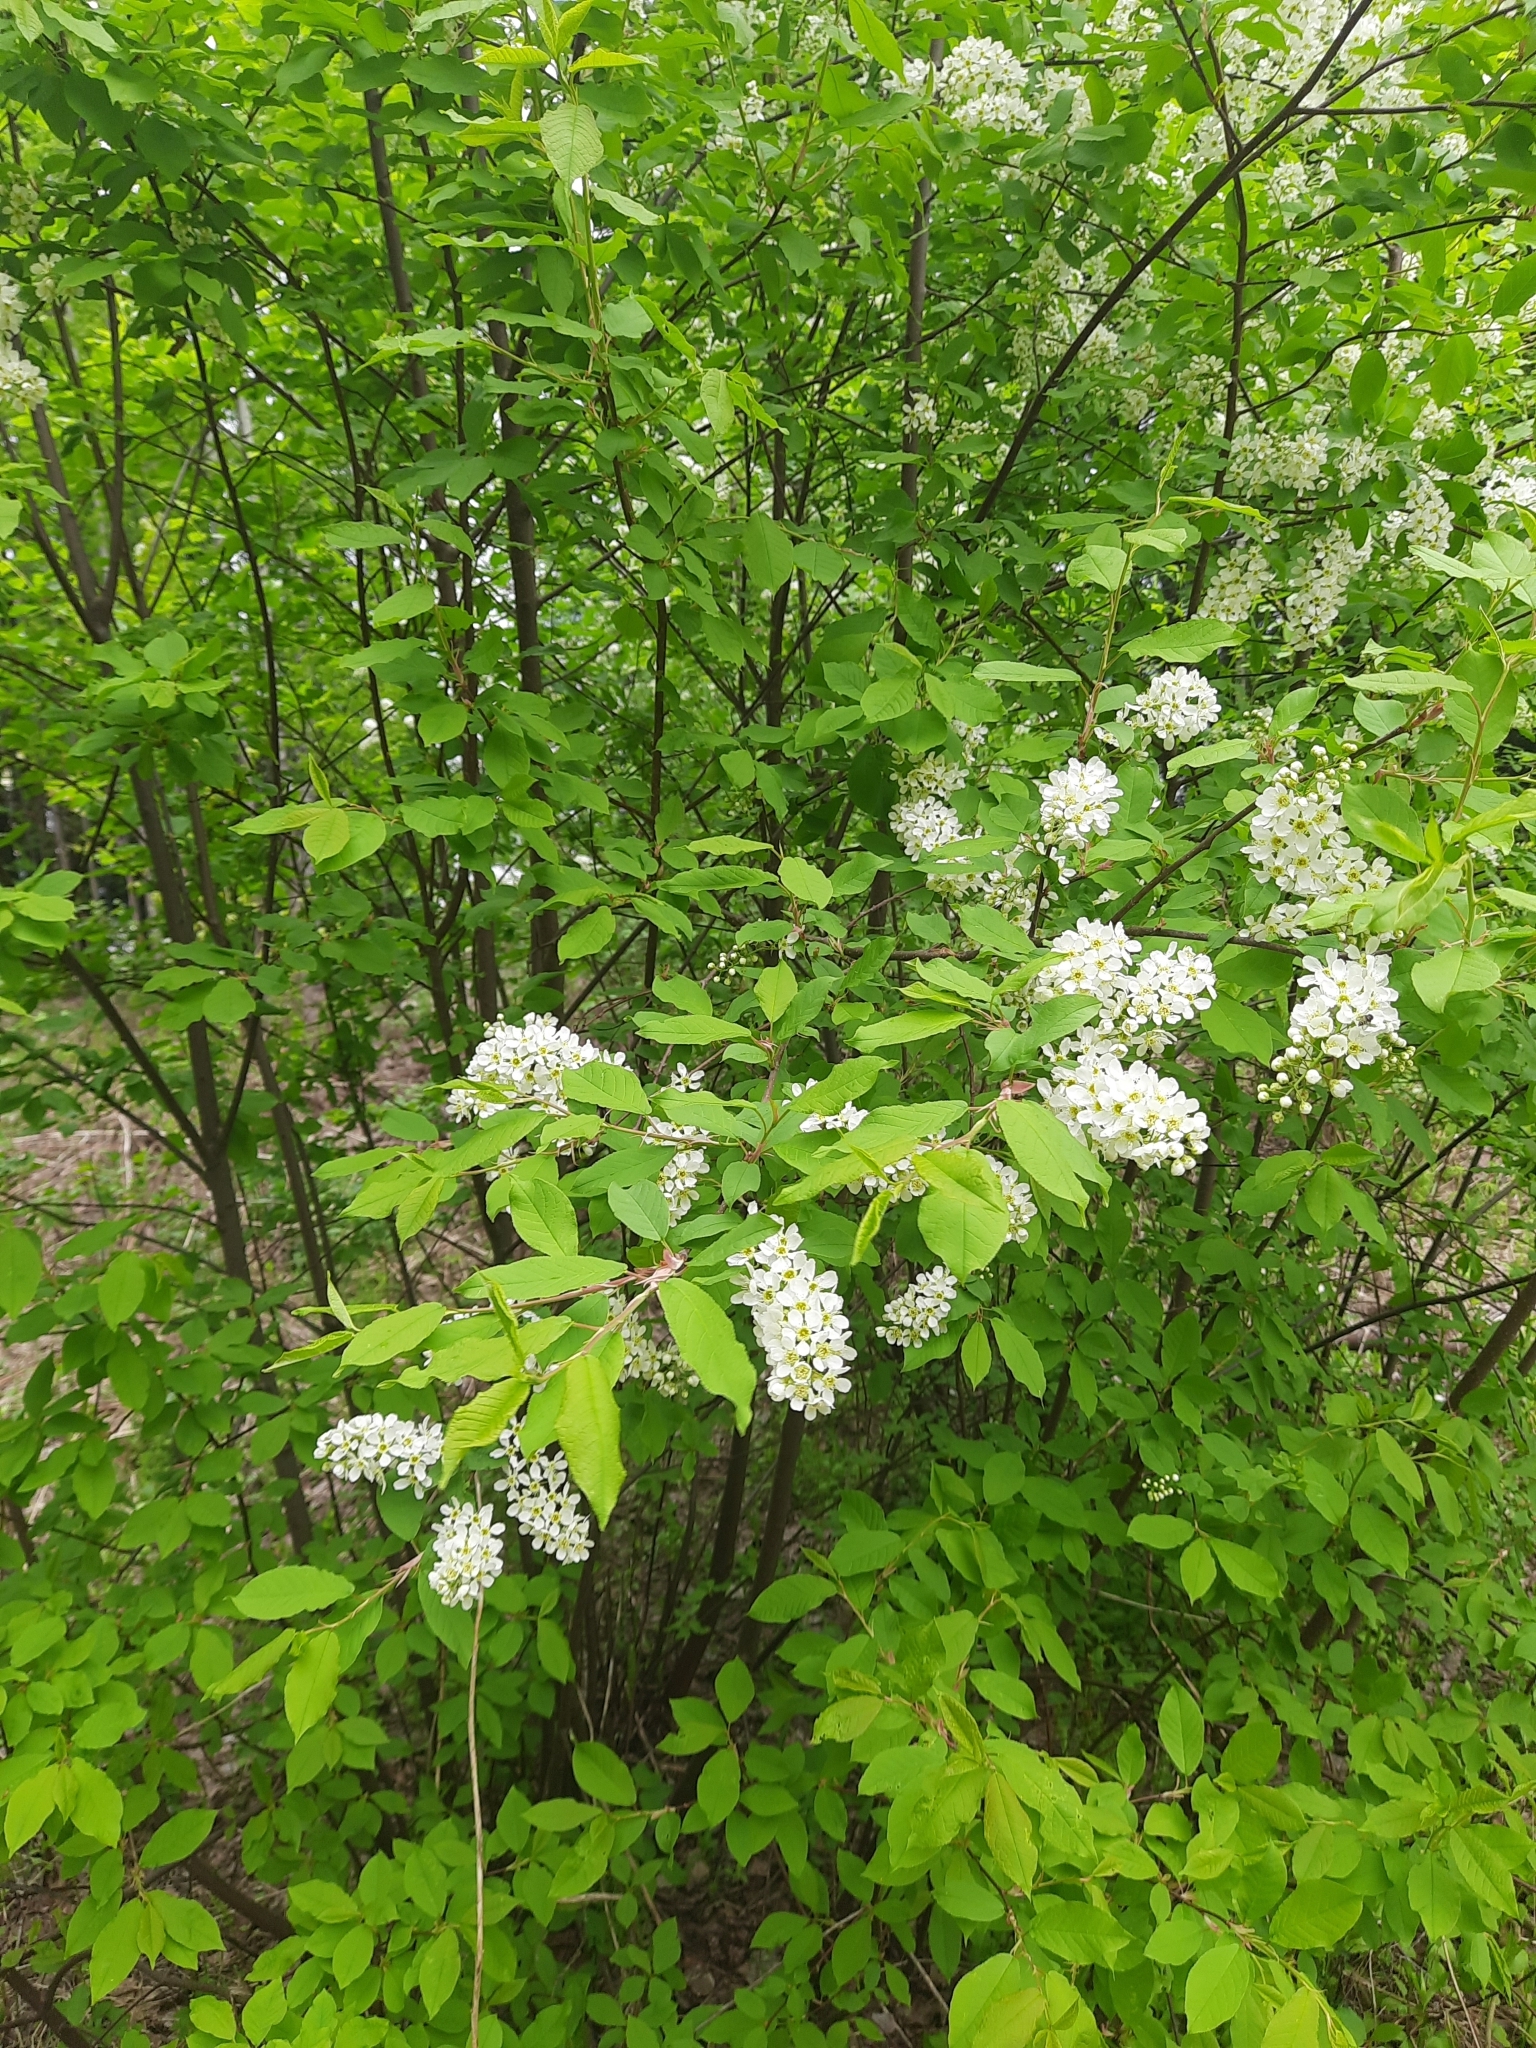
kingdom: Plantae
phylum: Tracheophyta
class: Magnoliopsida
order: Rosales
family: Rosaceae
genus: Prunus
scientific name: Prunus padus
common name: Bird cherry
